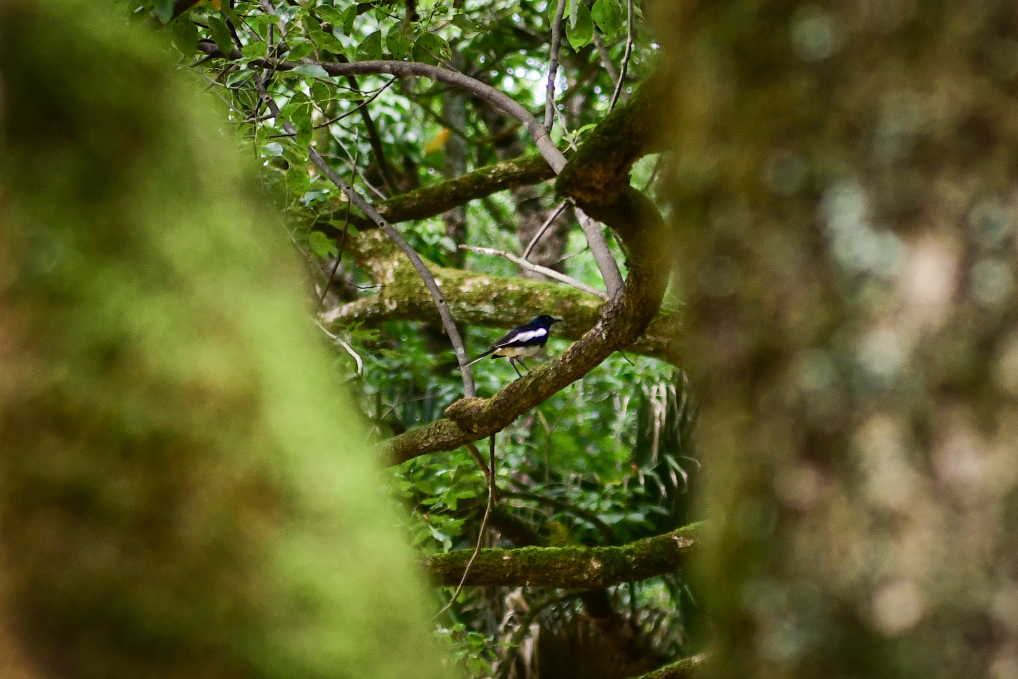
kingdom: Animalia
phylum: Chordata
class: Aves
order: Passeriformes
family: Muscicapidae
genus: Copsychus
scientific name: Copsychus saularis
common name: Oriental magpie-robin
